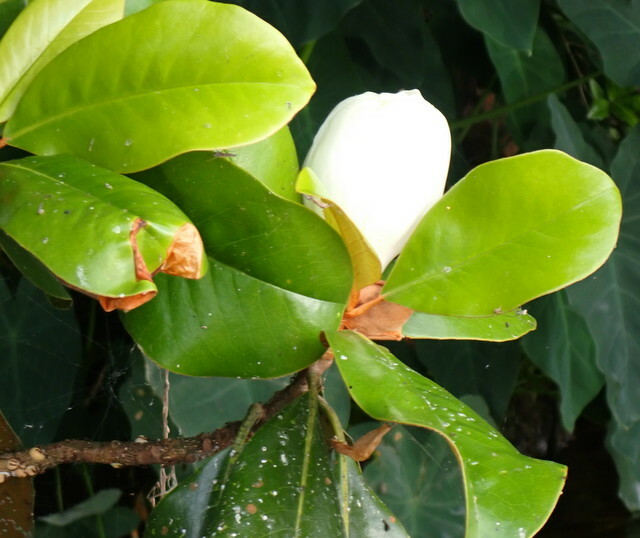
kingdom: Plantae
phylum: Tracheophyta
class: Magnoliopsida
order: Magnoliales
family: Magnoliaceae
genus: Magnolia
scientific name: Magnolia grandiflora
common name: Southern magnolia
